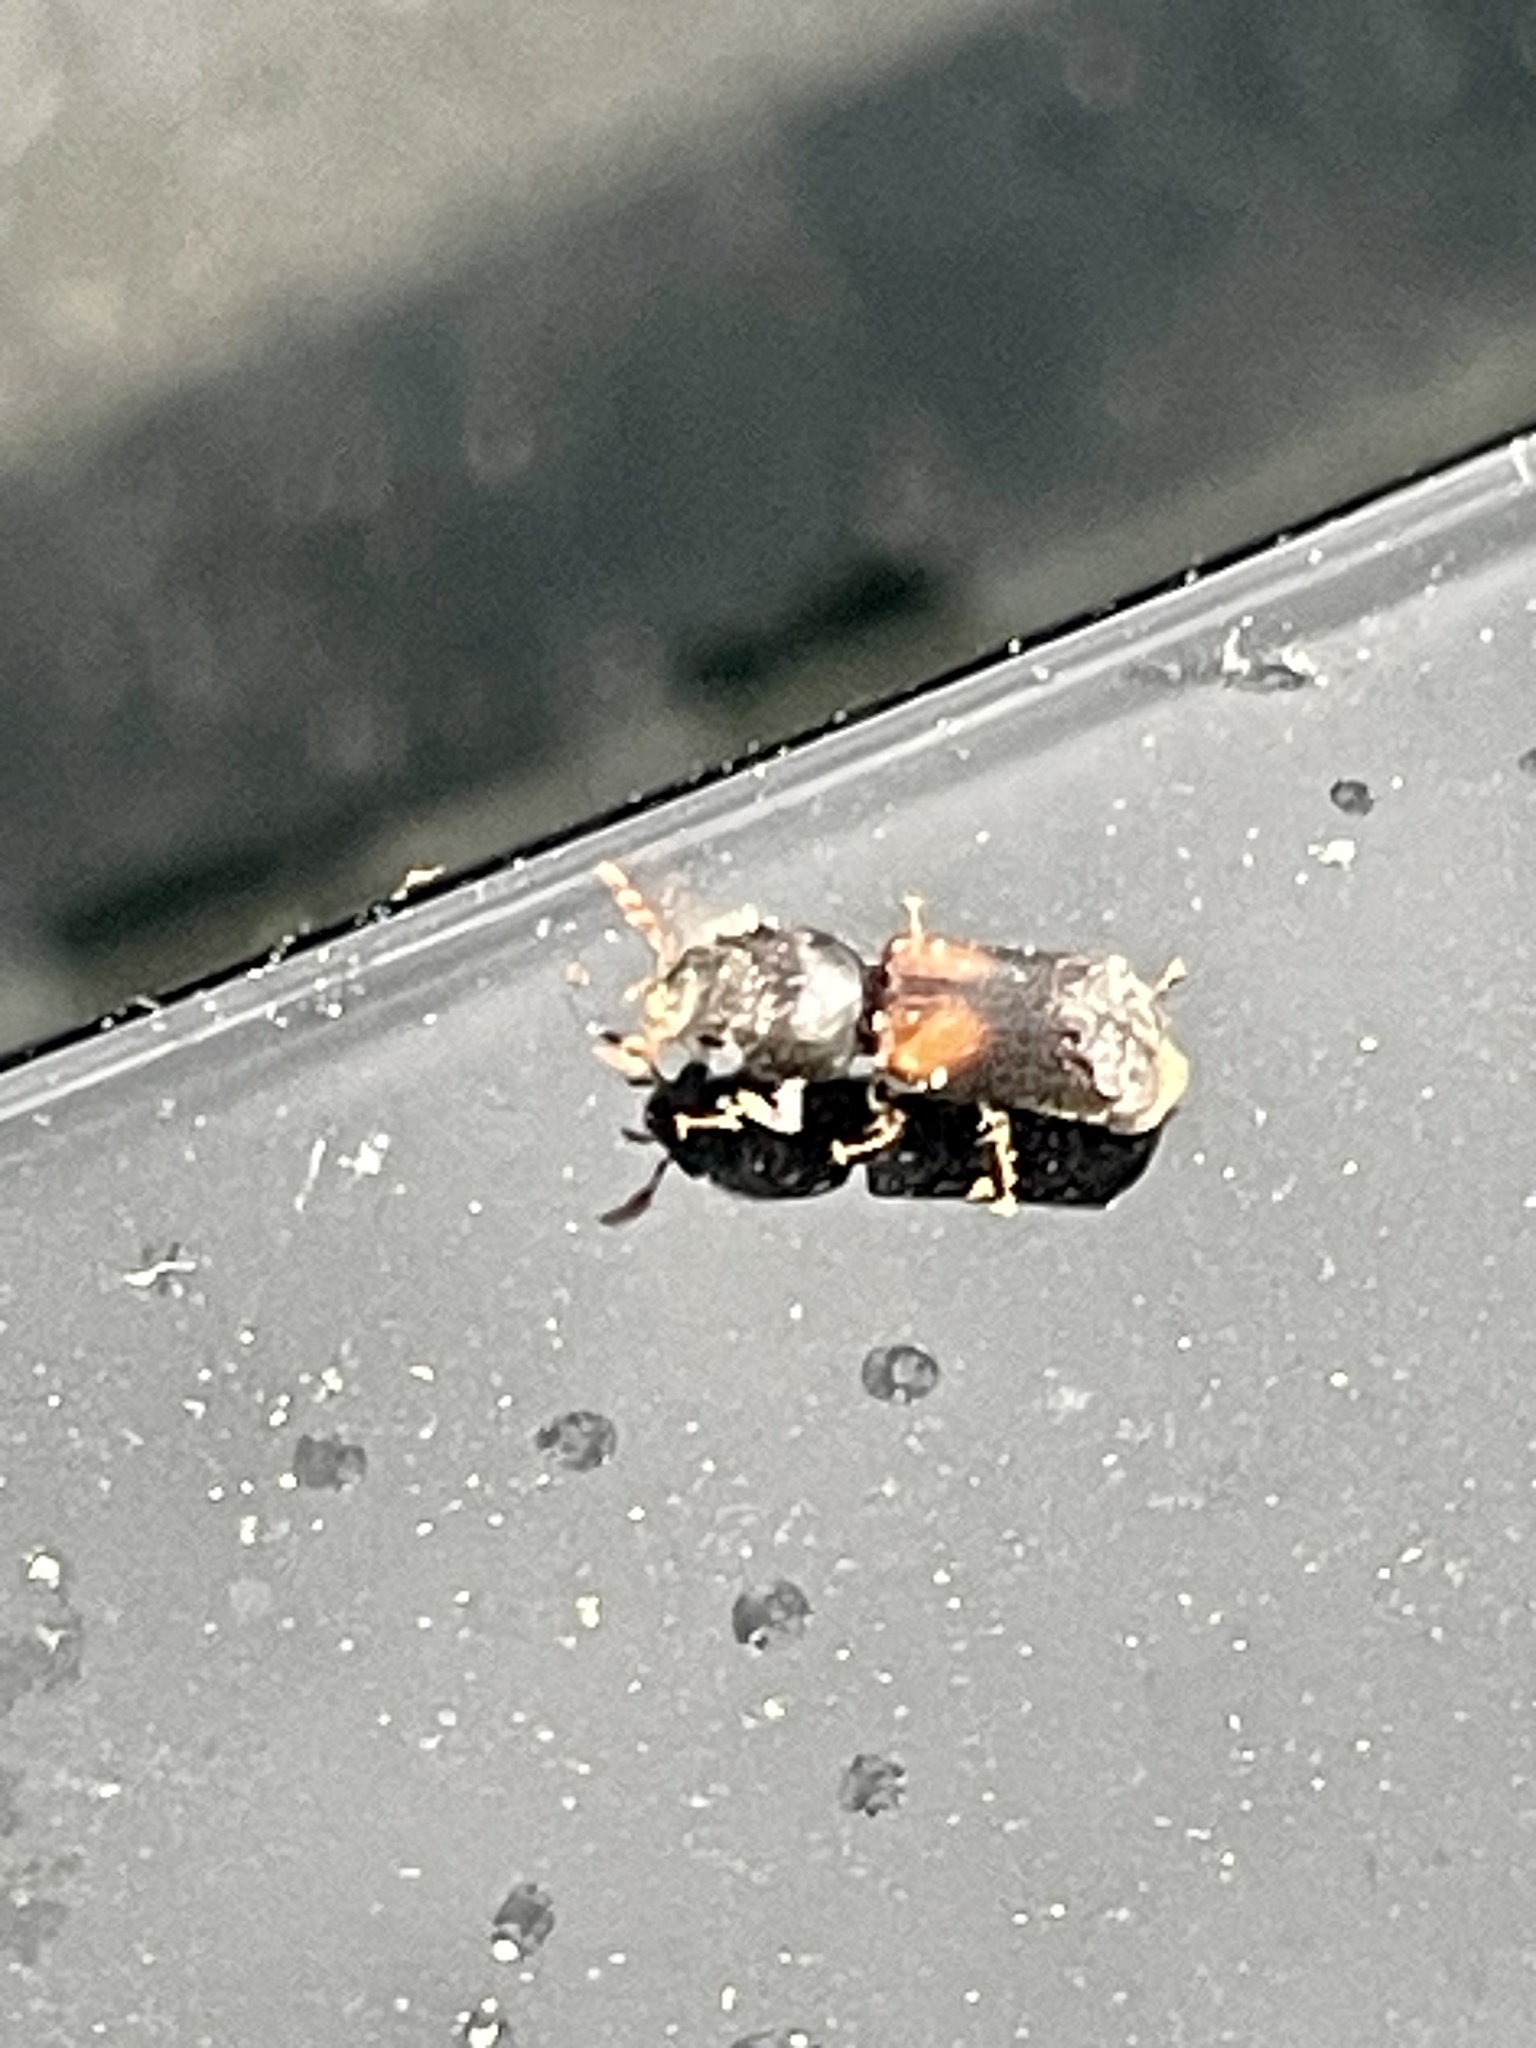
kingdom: Animalia
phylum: Arthropoda
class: Insecta
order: Coleoptera
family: Bostrichidae
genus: Xylobiops
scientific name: Xylobiops basilaris
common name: Red-shouldered bostrichid
